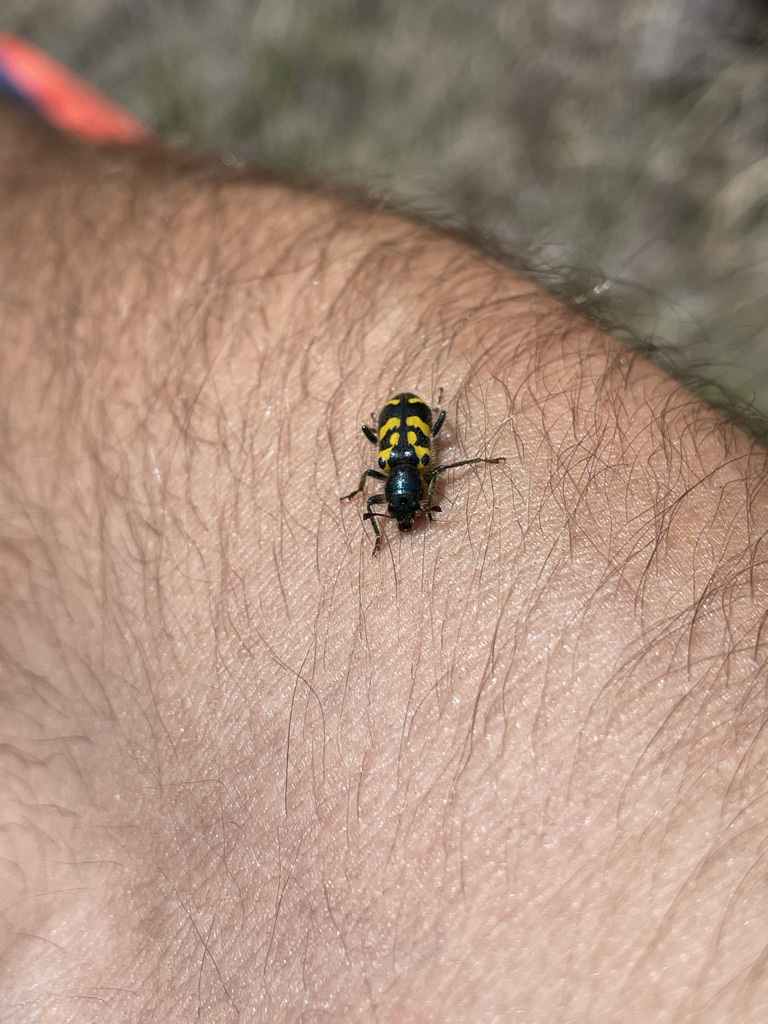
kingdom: Animalia
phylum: Arthropoda
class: Insecta
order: Coleoptera
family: Cleridae
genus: Trichodes
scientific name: Trichodes ornatus
